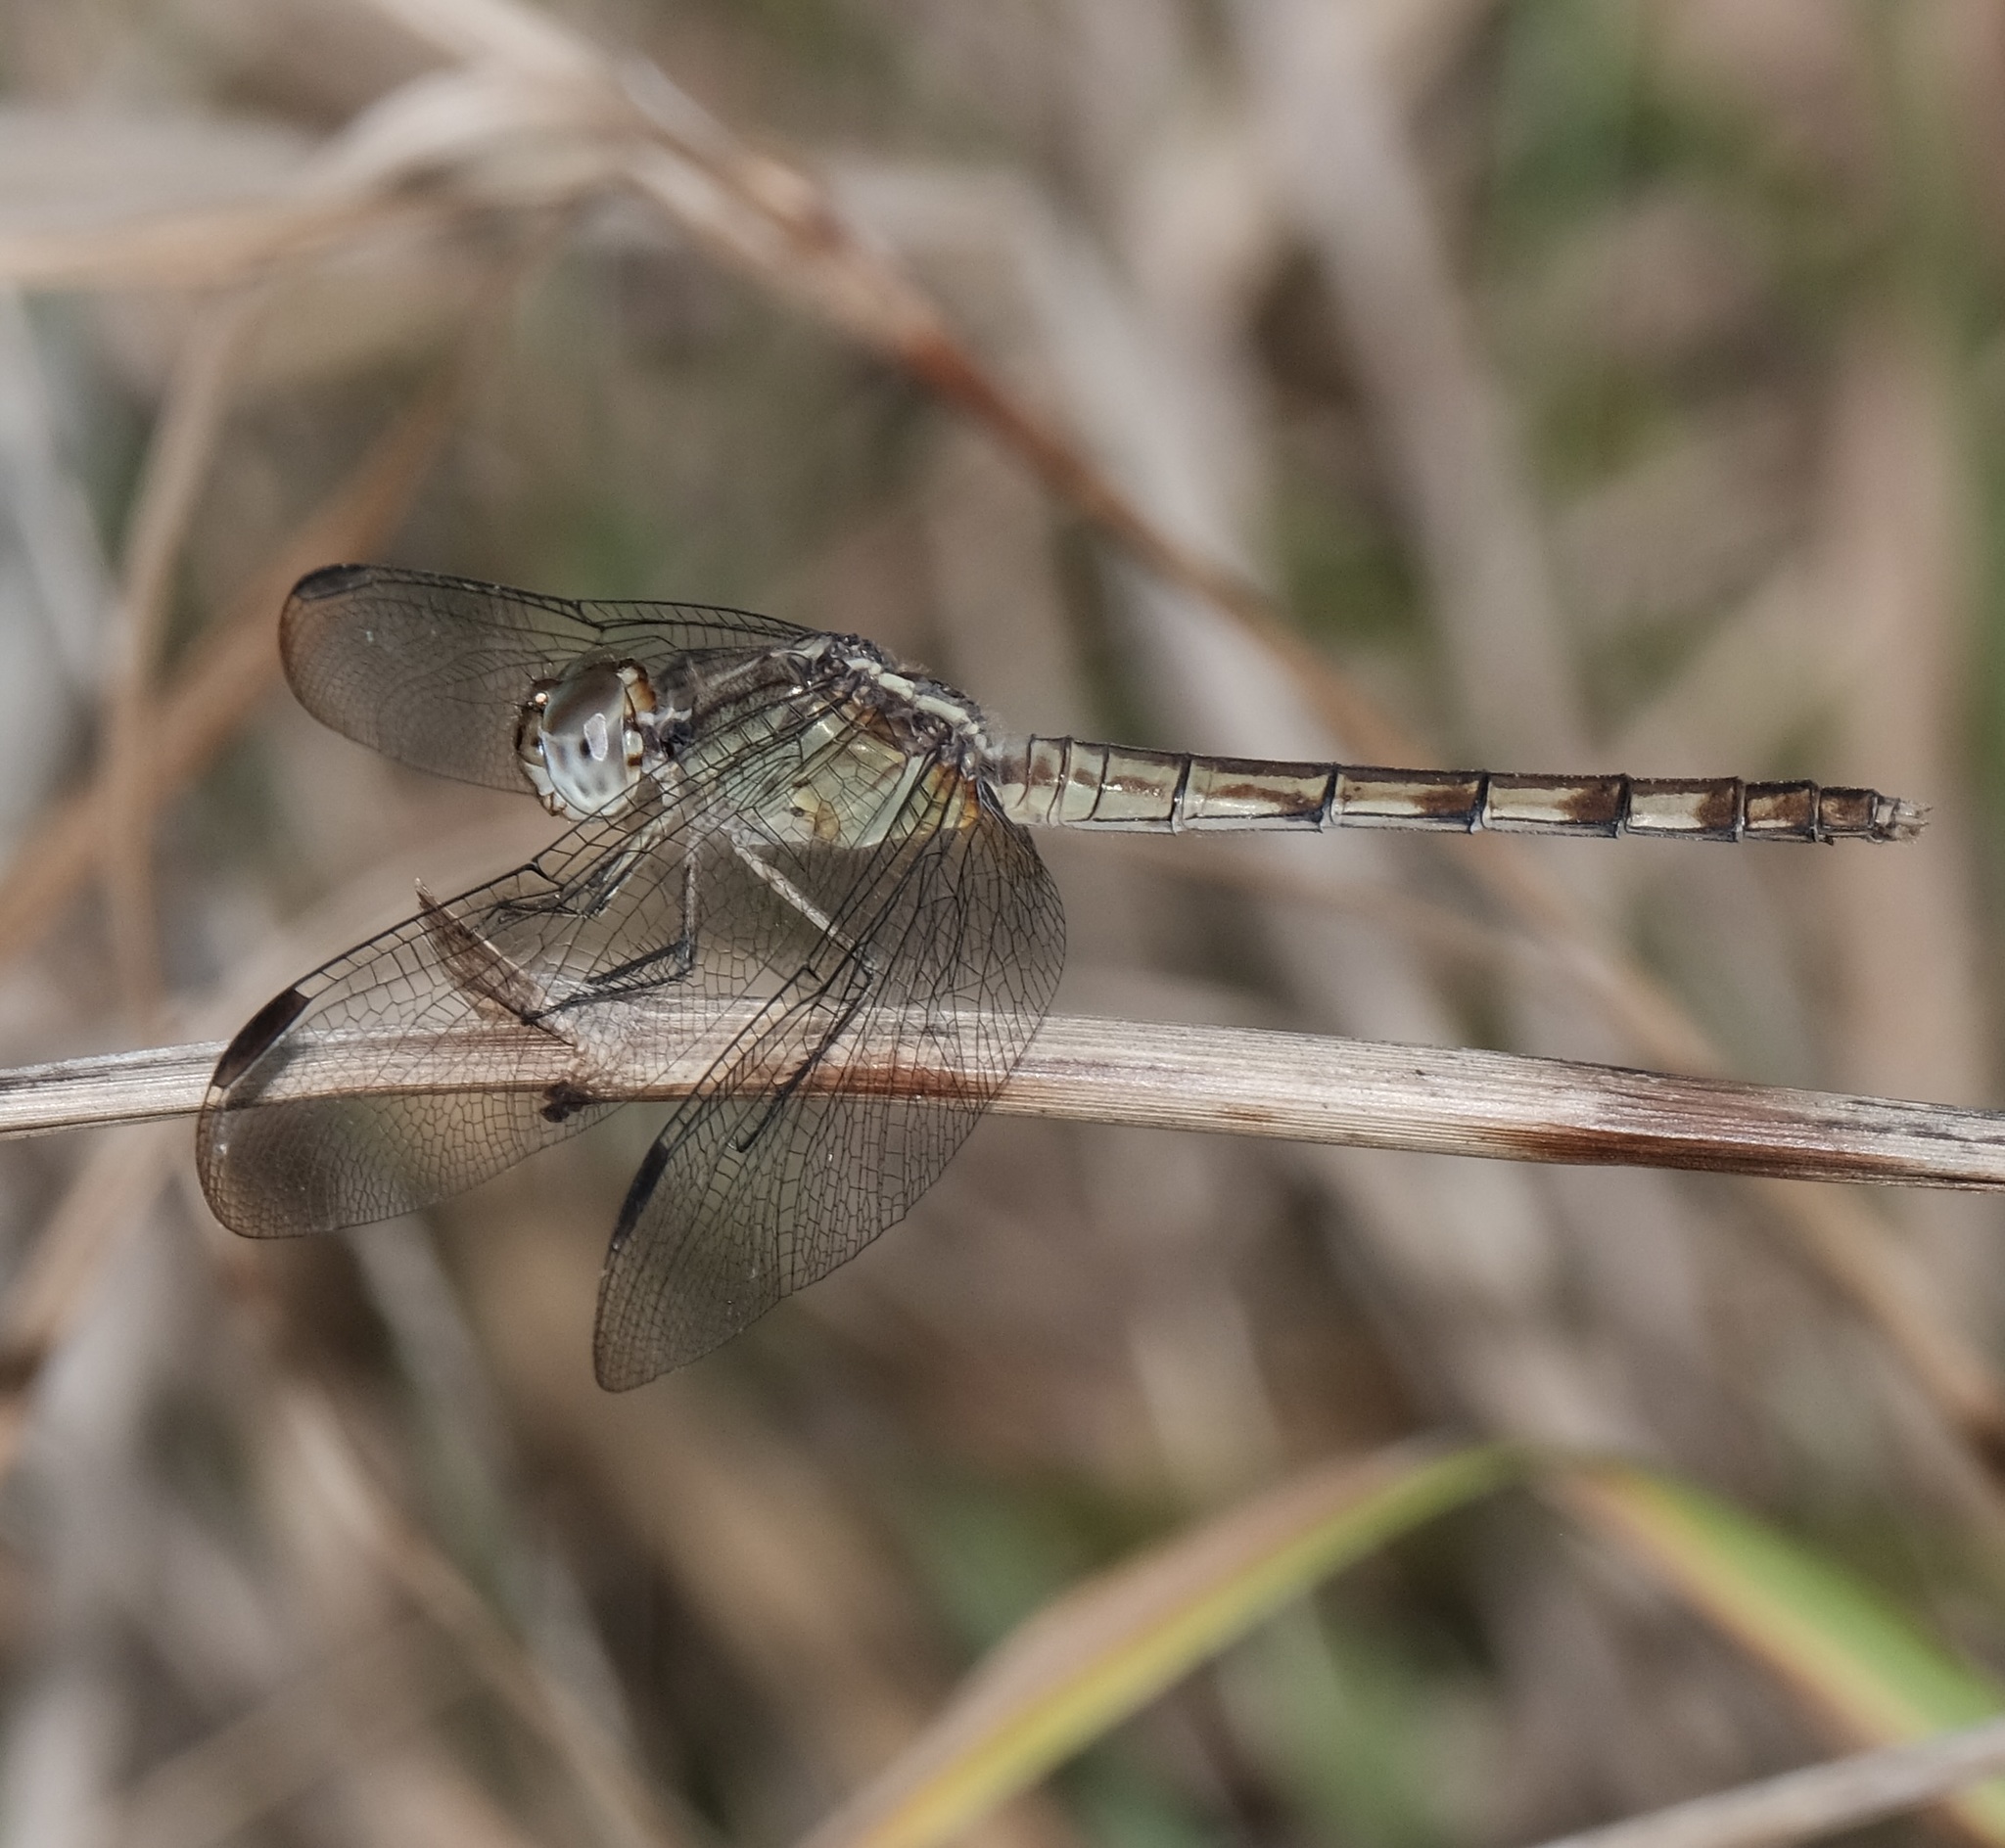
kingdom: Animalia
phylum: Arthropoda
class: Insecta
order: Odonata
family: Libellulidae
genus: Erythrodiplax
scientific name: Erythrodiplax umbrata
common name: Band-winged dragonlet
